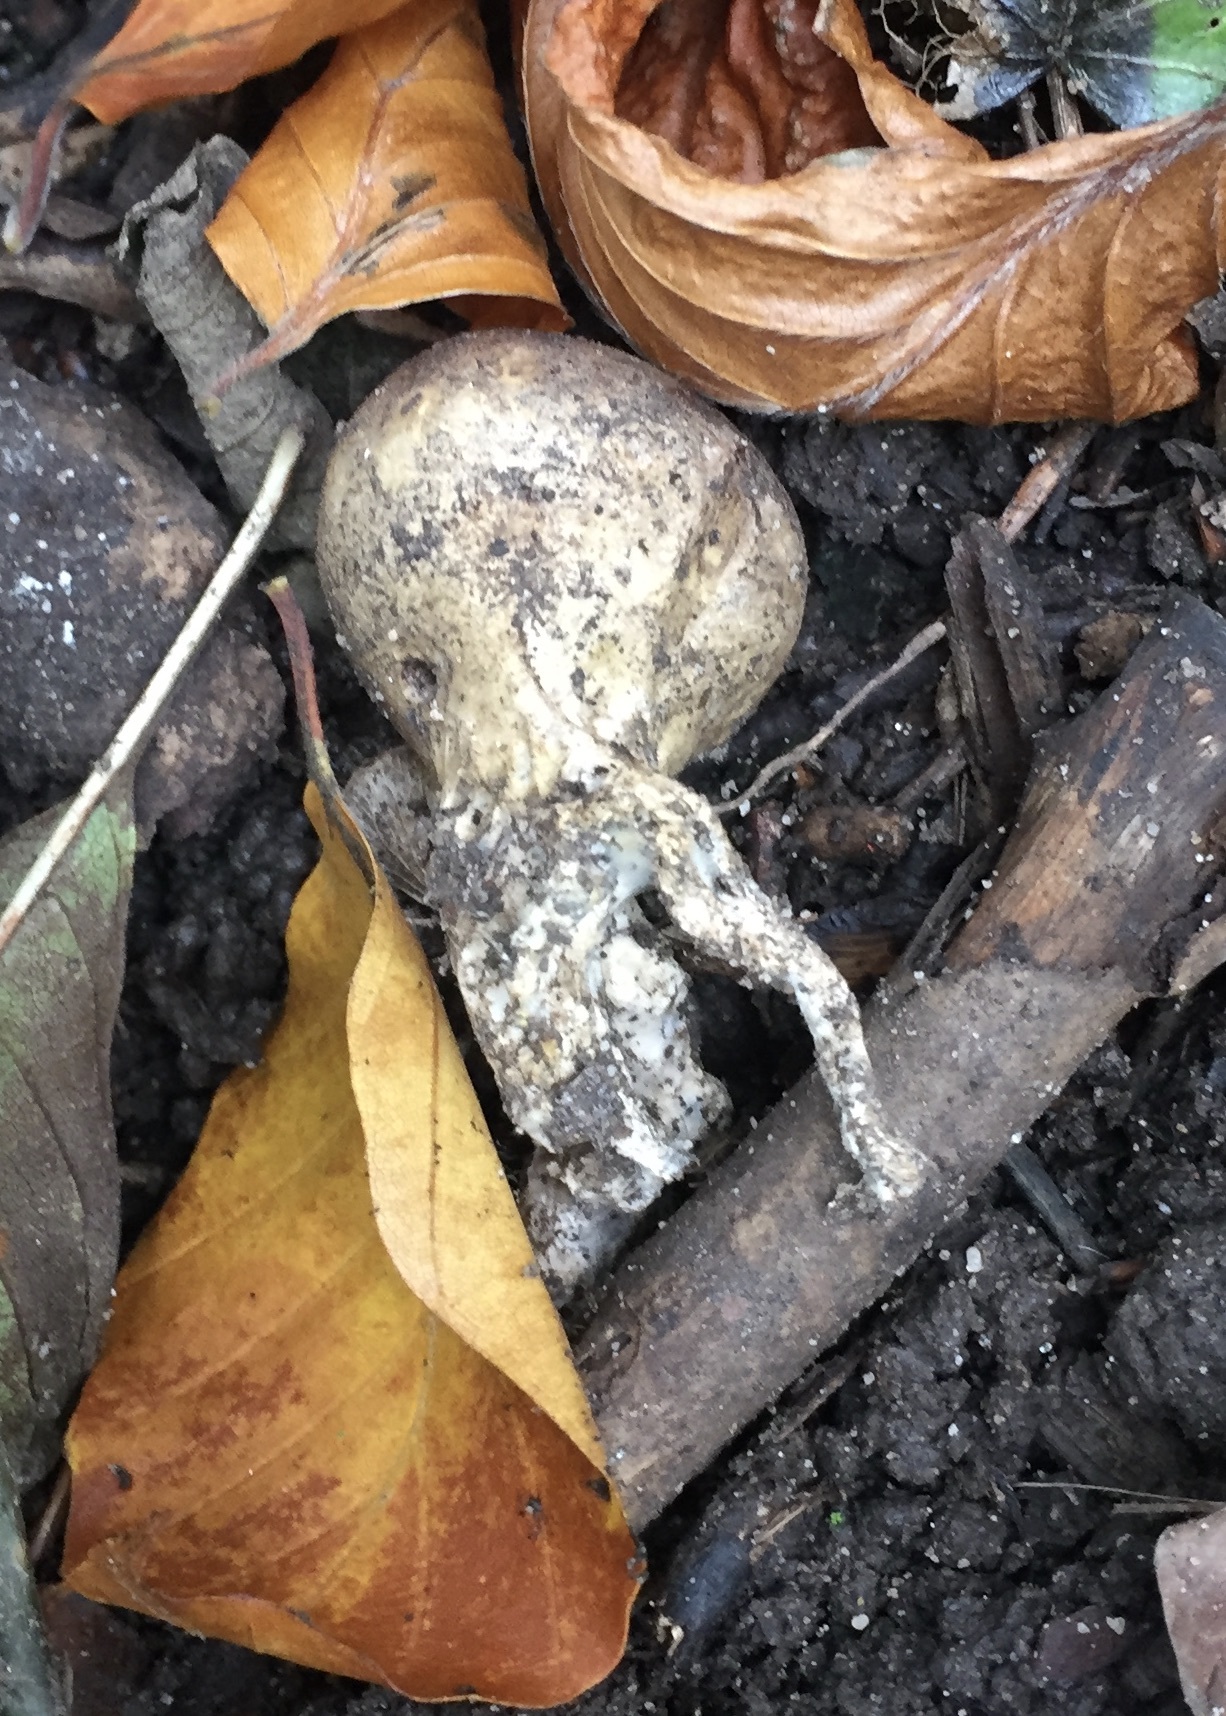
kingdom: Fungi
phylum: Basidiomycota
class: Agaricomycetes
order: Boletales
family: Sclerodermataceae
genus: Scleroderma
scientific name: Scleroderma citrinum
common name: Common earthball
